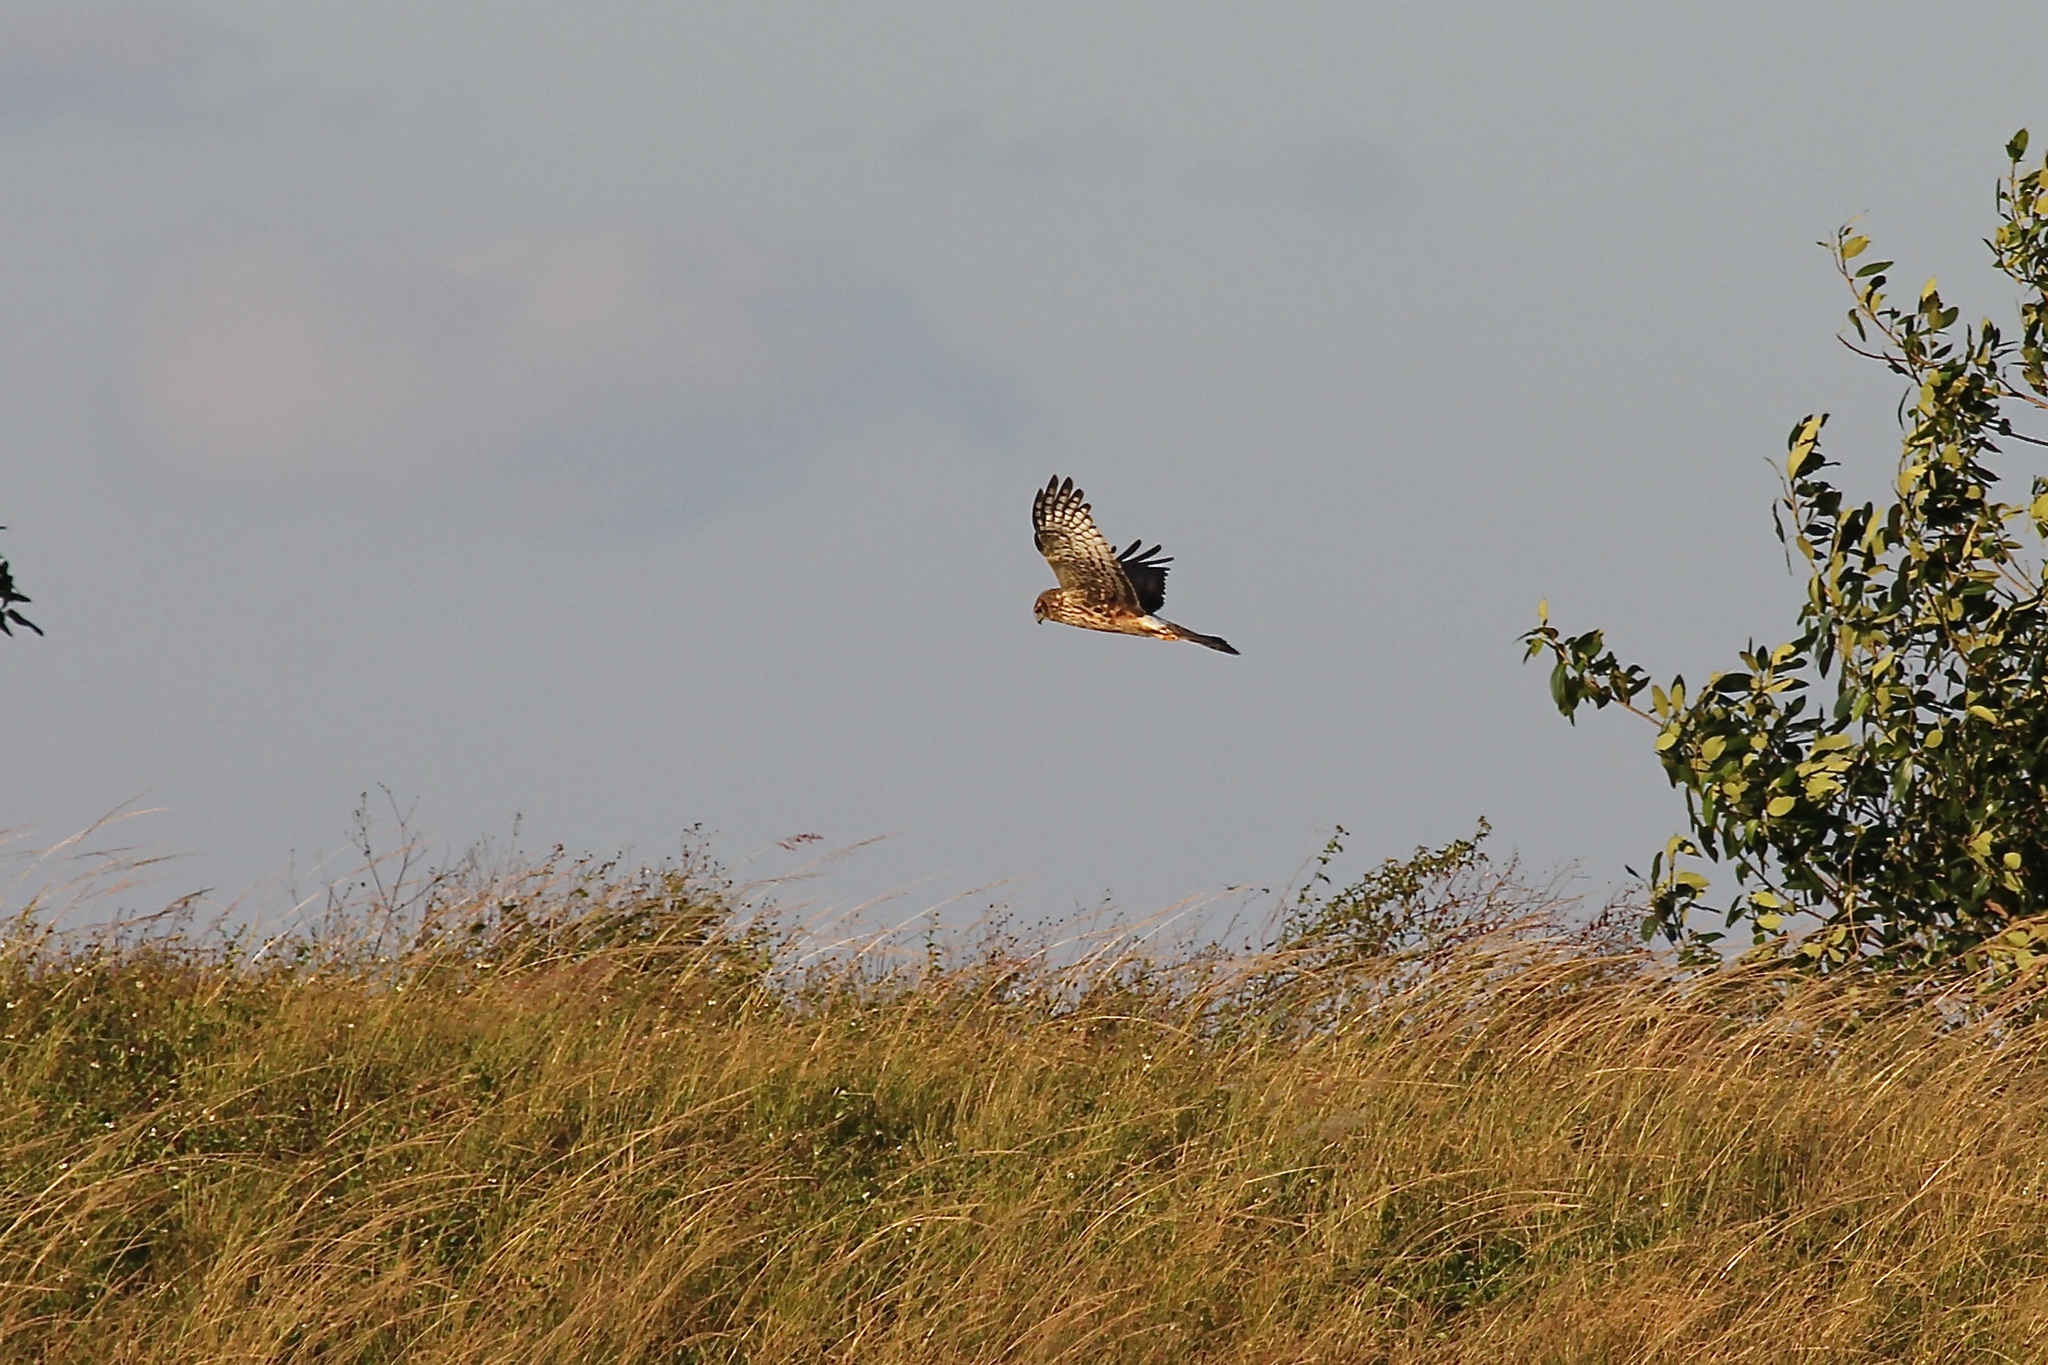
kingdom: Animalia
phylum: Chordata
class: Aves
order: Accipitriformes
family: Accipitridae
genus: Circus
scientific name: Circus cyaneus
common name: Hen harrier
